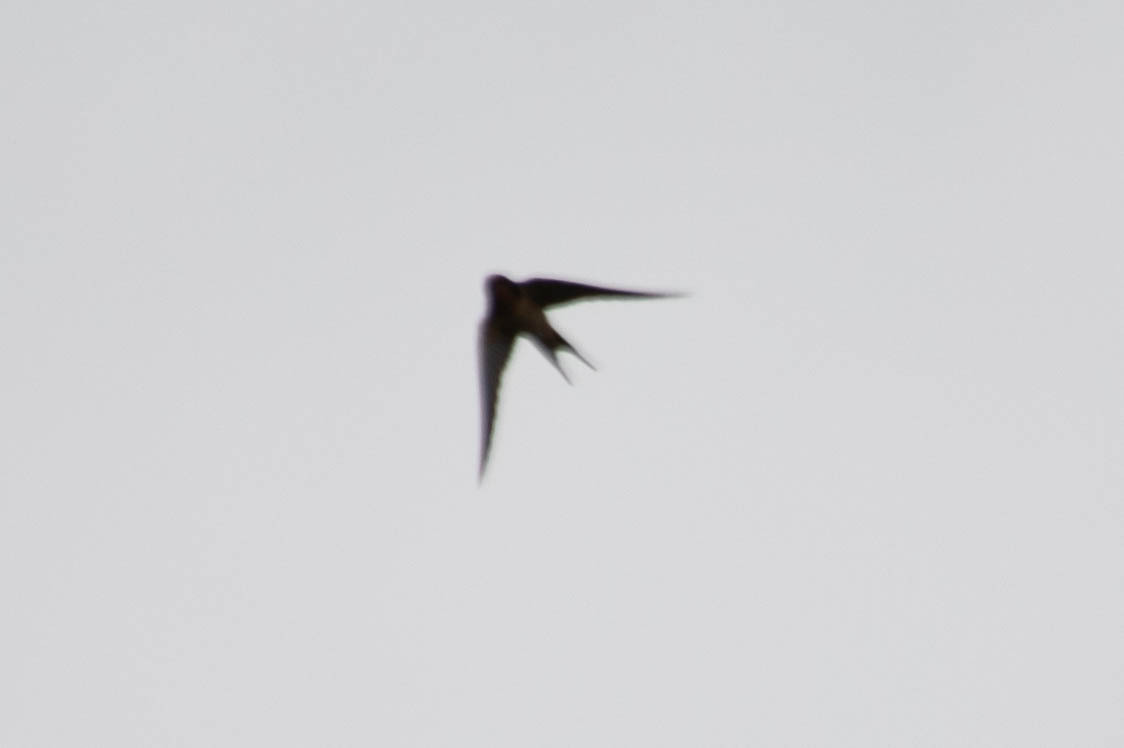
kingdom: Animalia
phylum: Chordata
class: Aves
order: Passeriformes
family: Hirundinidae
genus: Hirundo
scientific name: Hirundo rustica
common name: Barn swallow
